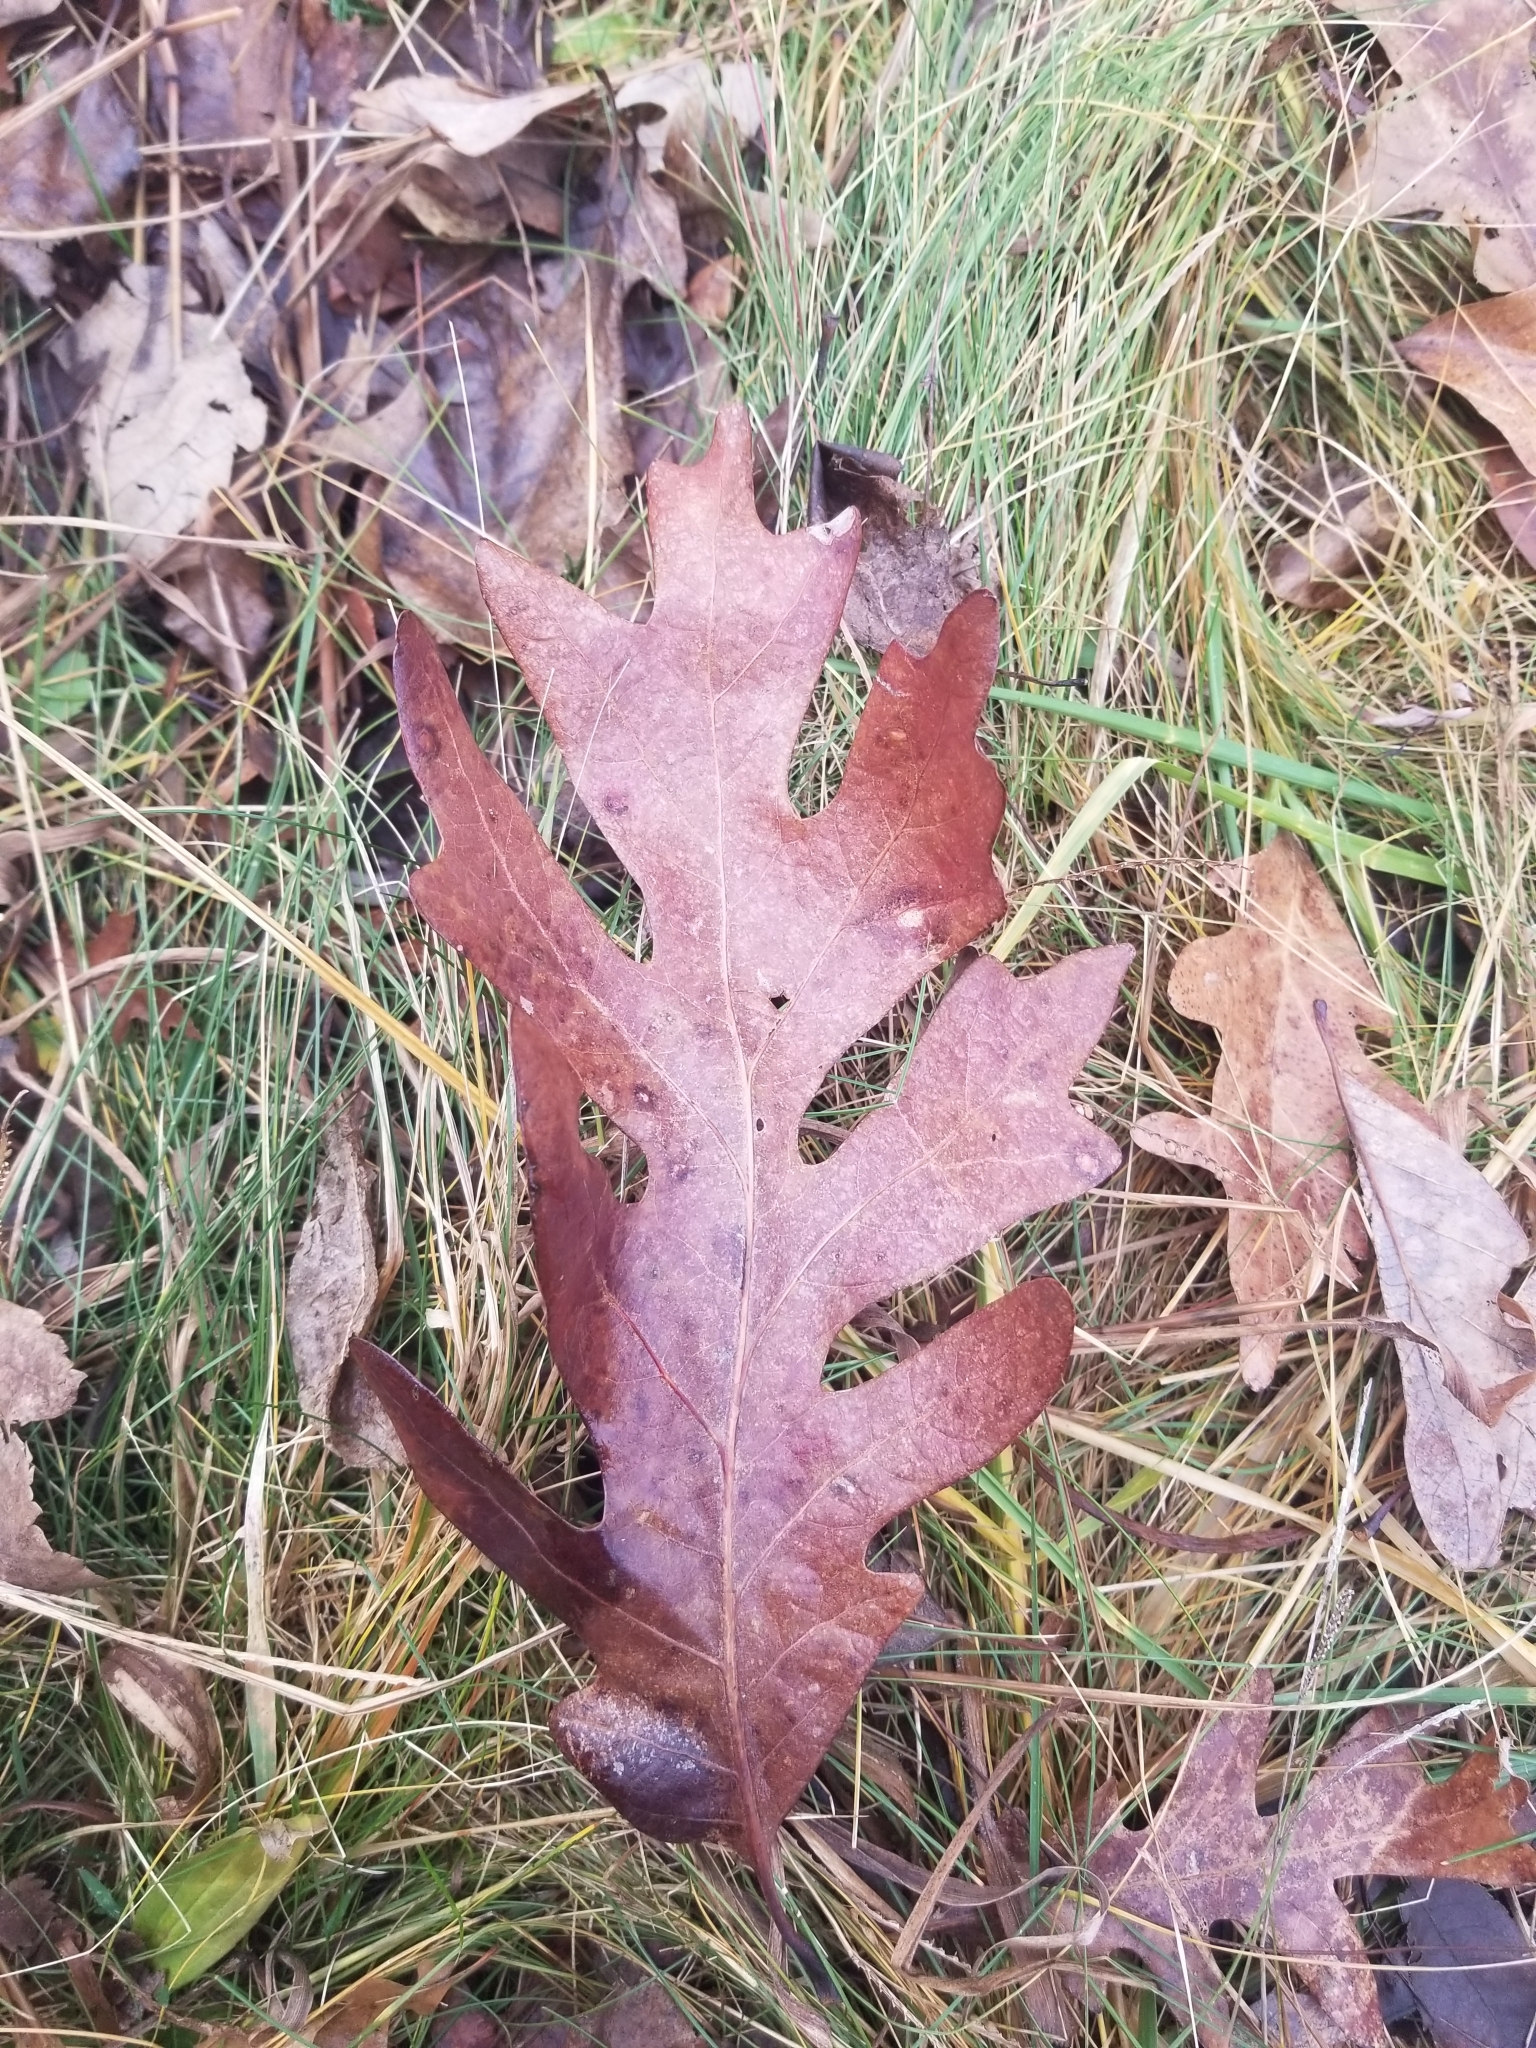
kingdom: Plantae
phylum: Tracheophyta
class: Magnoliopsida
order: Fagales
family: Fagaceae
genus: Quercus
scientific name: Quercus alba
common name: White oak
